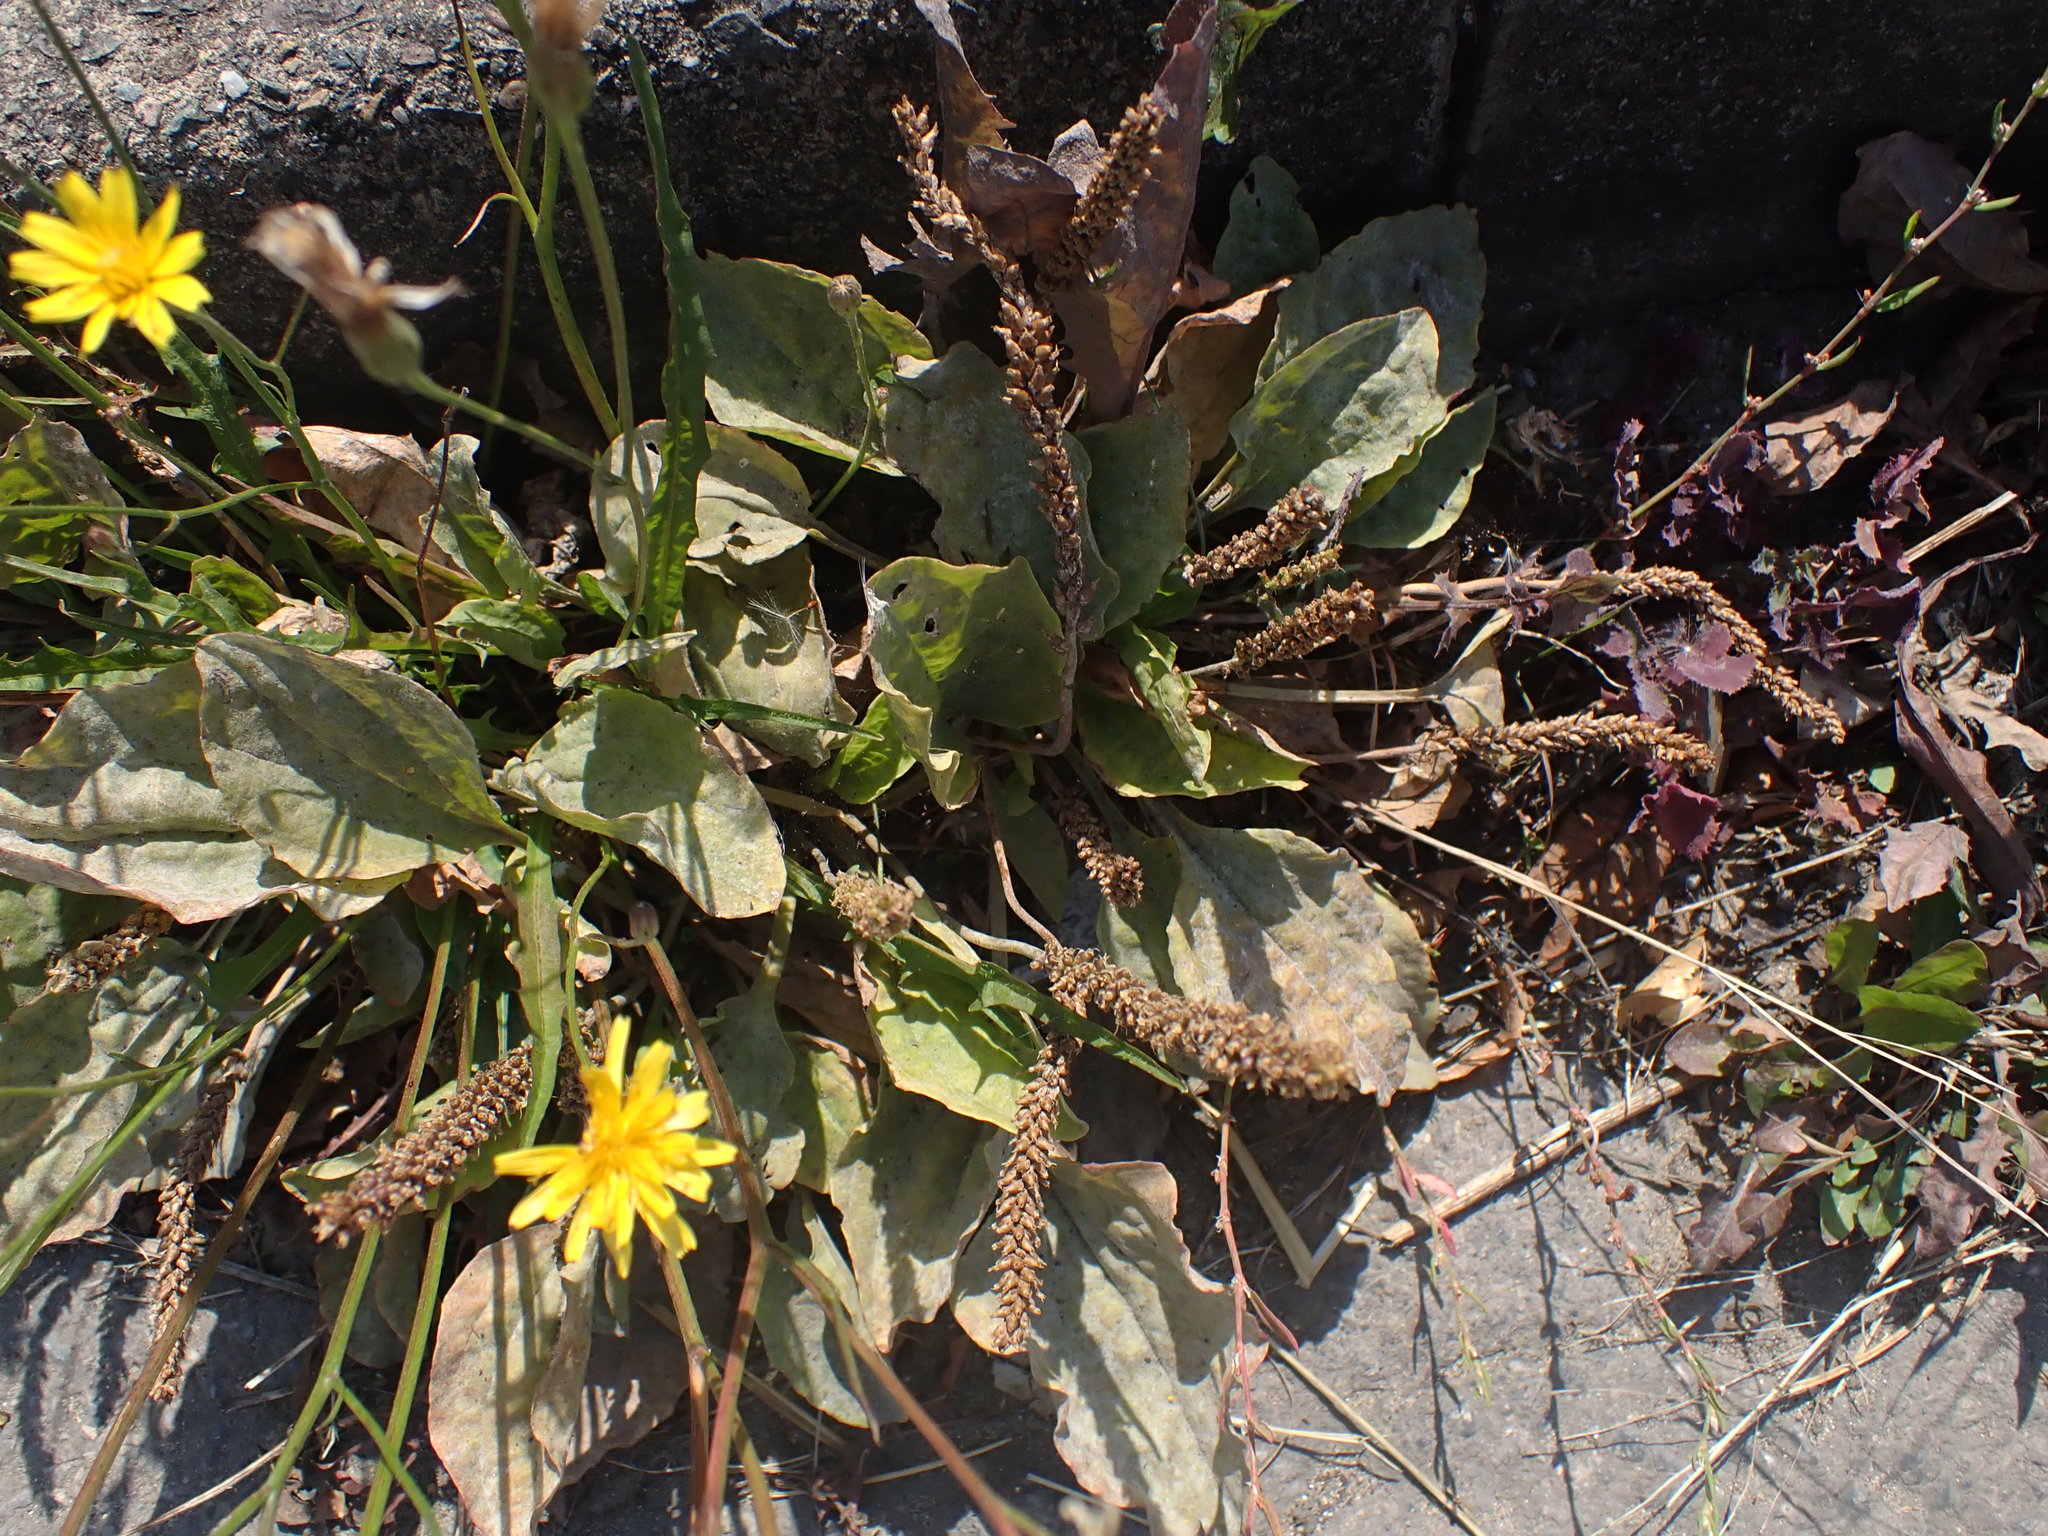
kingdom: Plantae
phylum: Tracheophyta
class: Magnoliopsida
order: Lamiales
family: Plantaginaceae
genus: Plantago
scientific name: Plantago major
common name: Common plantain
